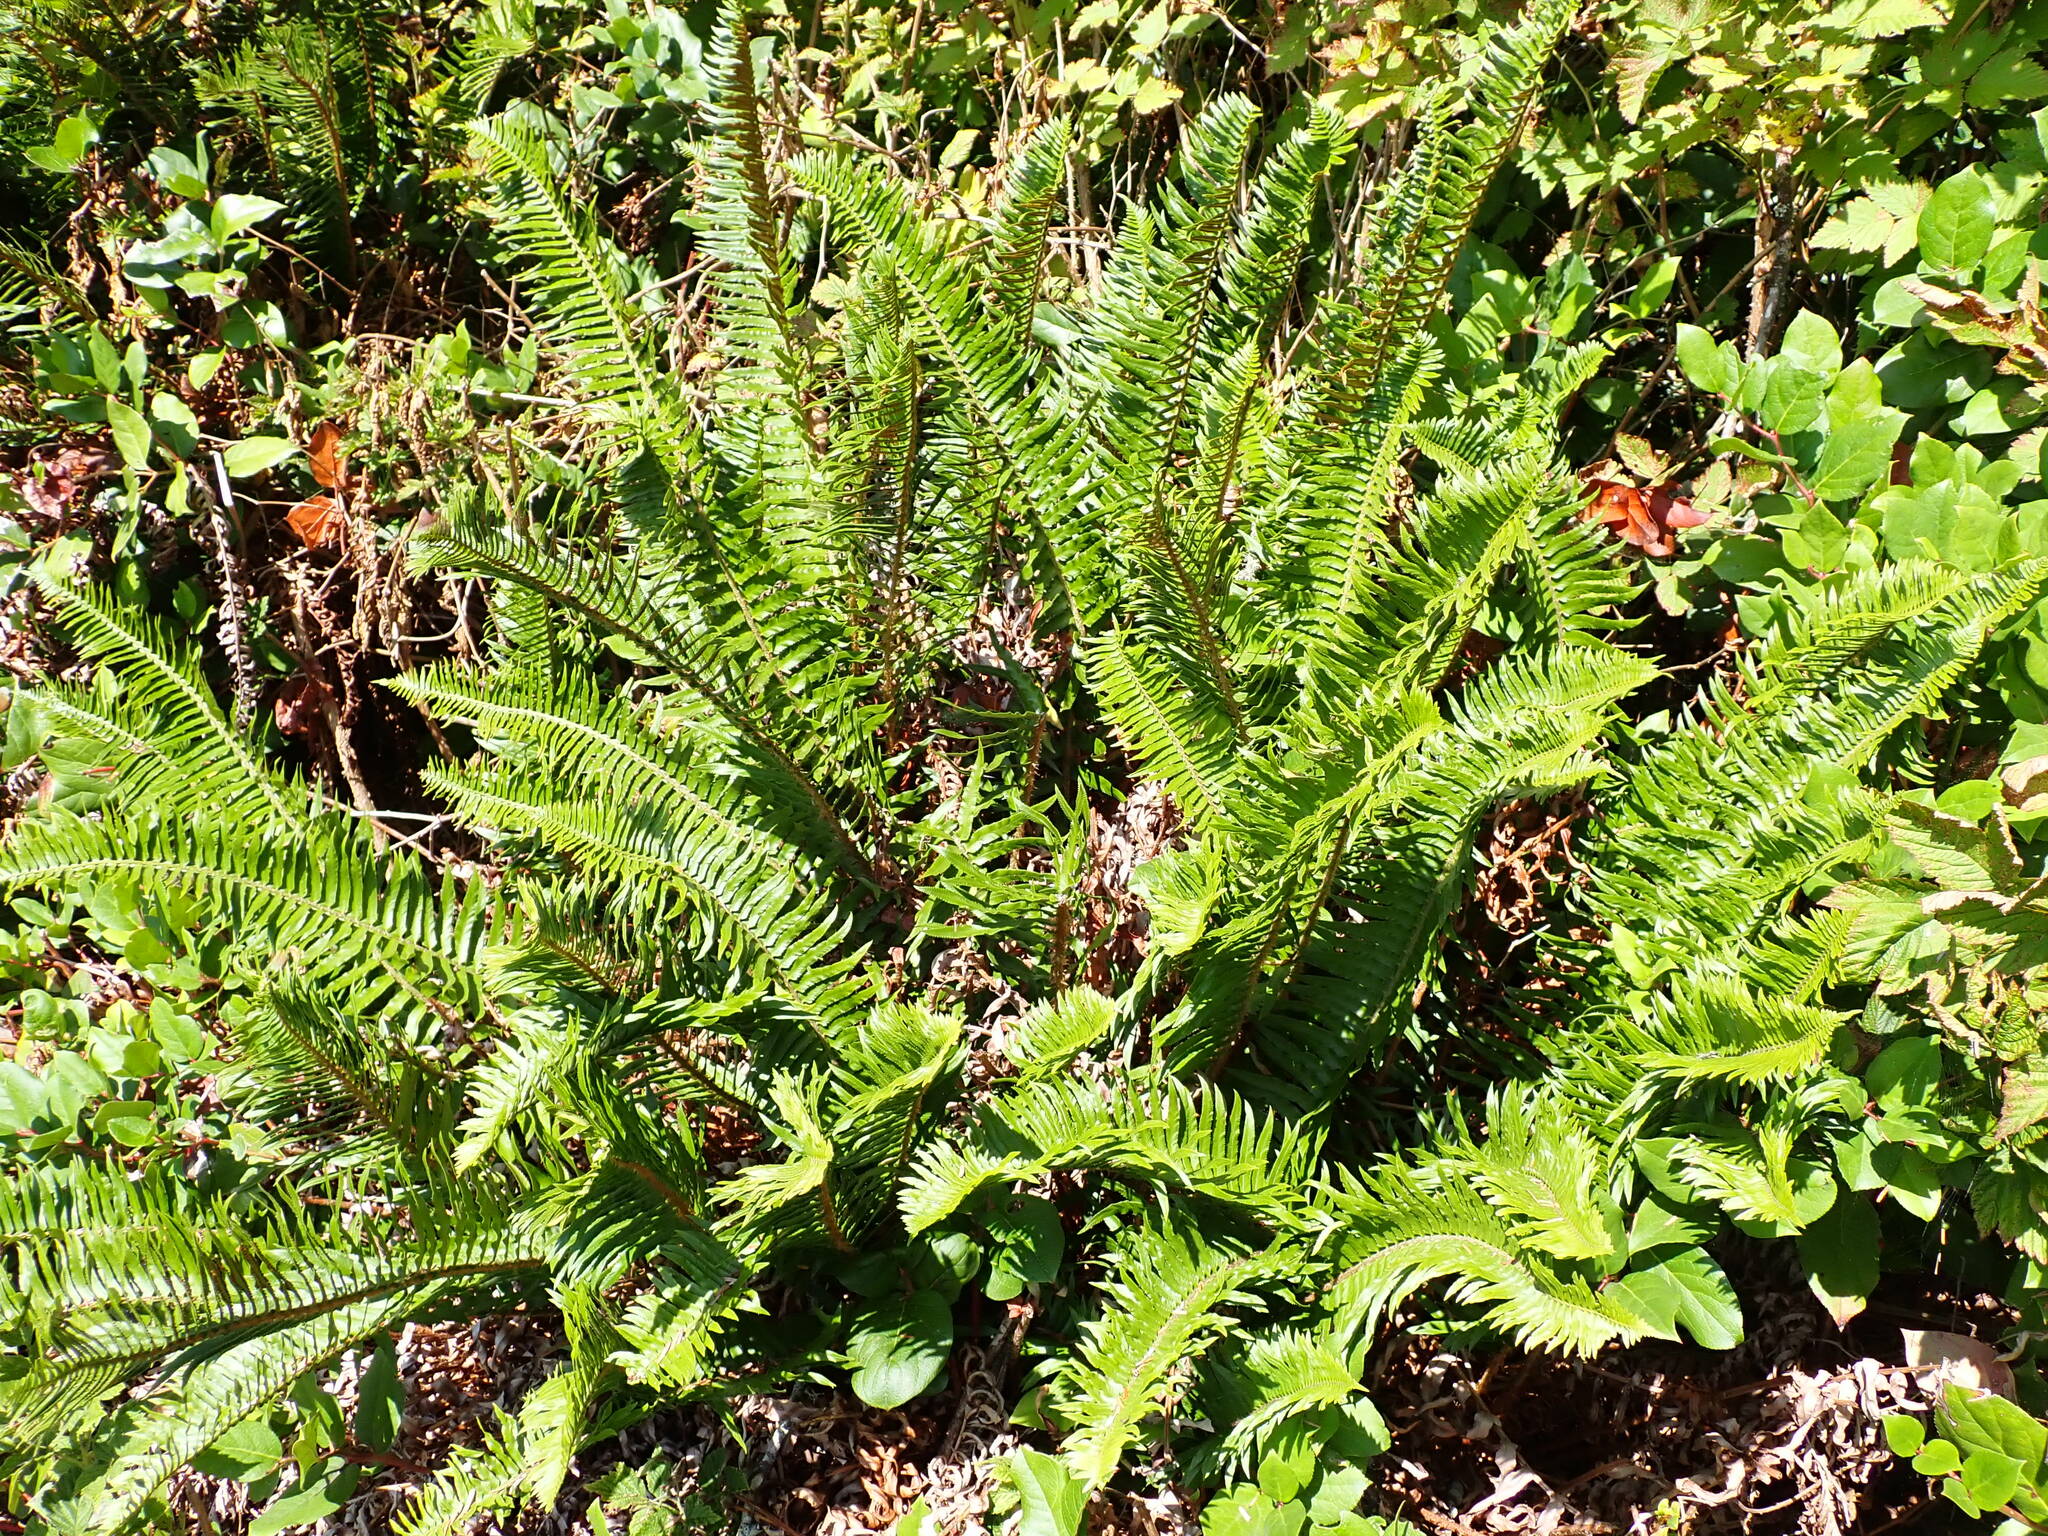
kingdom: Plantae
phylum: Tracheophyta
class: Polypodiopsida
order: Polypodiales
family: Dryopteridaceae
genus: Polystichum
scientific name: Polystichum munitum
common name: Western sword-fern
